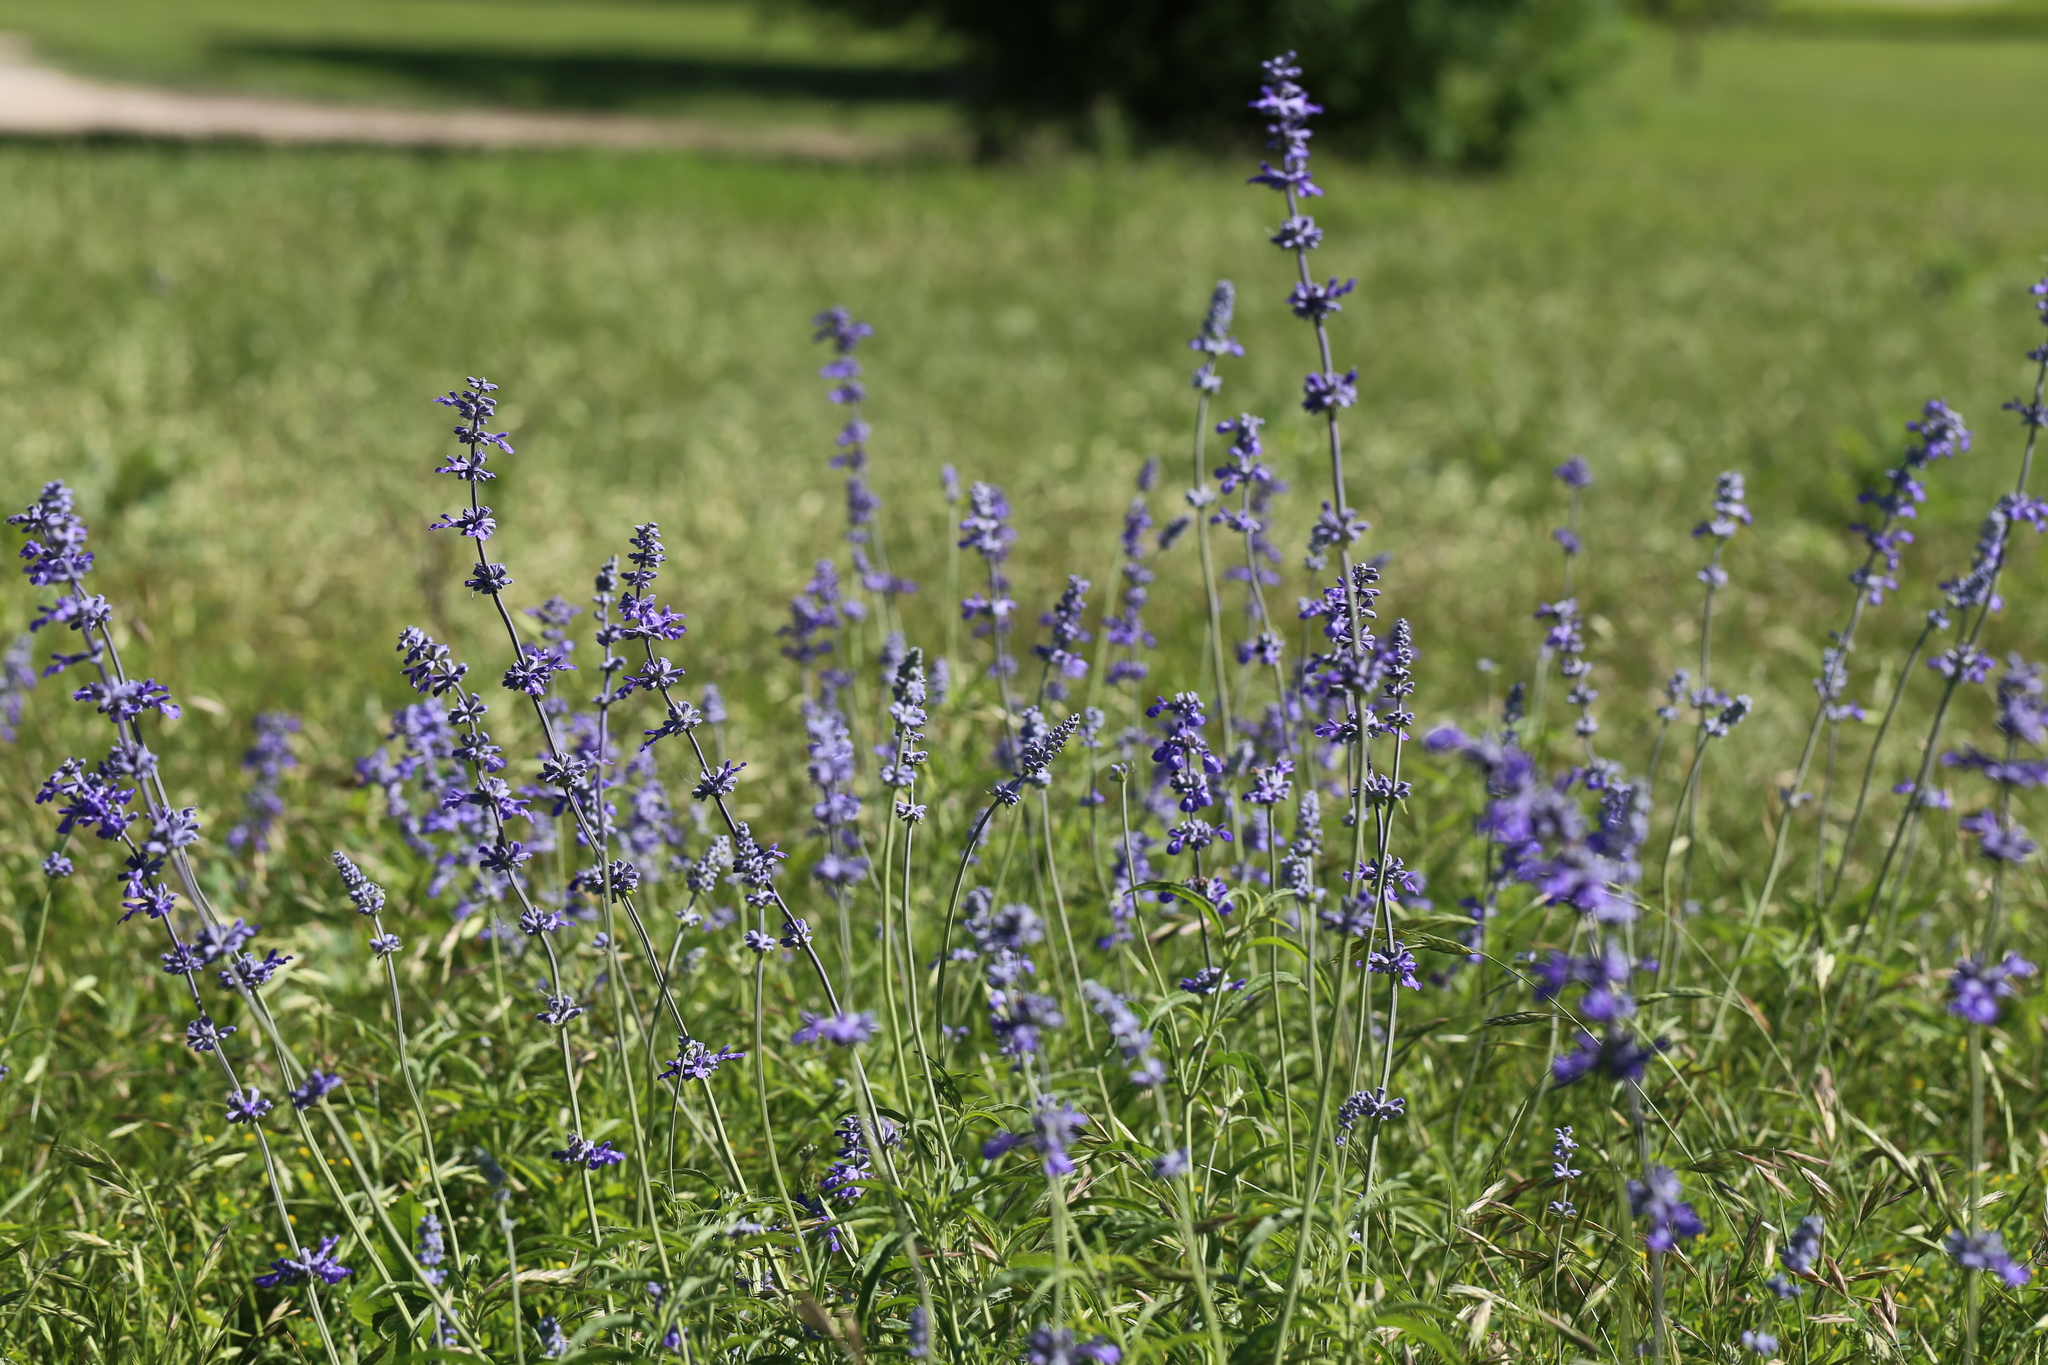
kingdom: Plantae
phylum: Tracheophyta
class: Magnoliopsida
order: Lamiales
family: Lamiaceae
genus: Salvia
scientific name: Salvia farinacea
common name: Mealy sage
